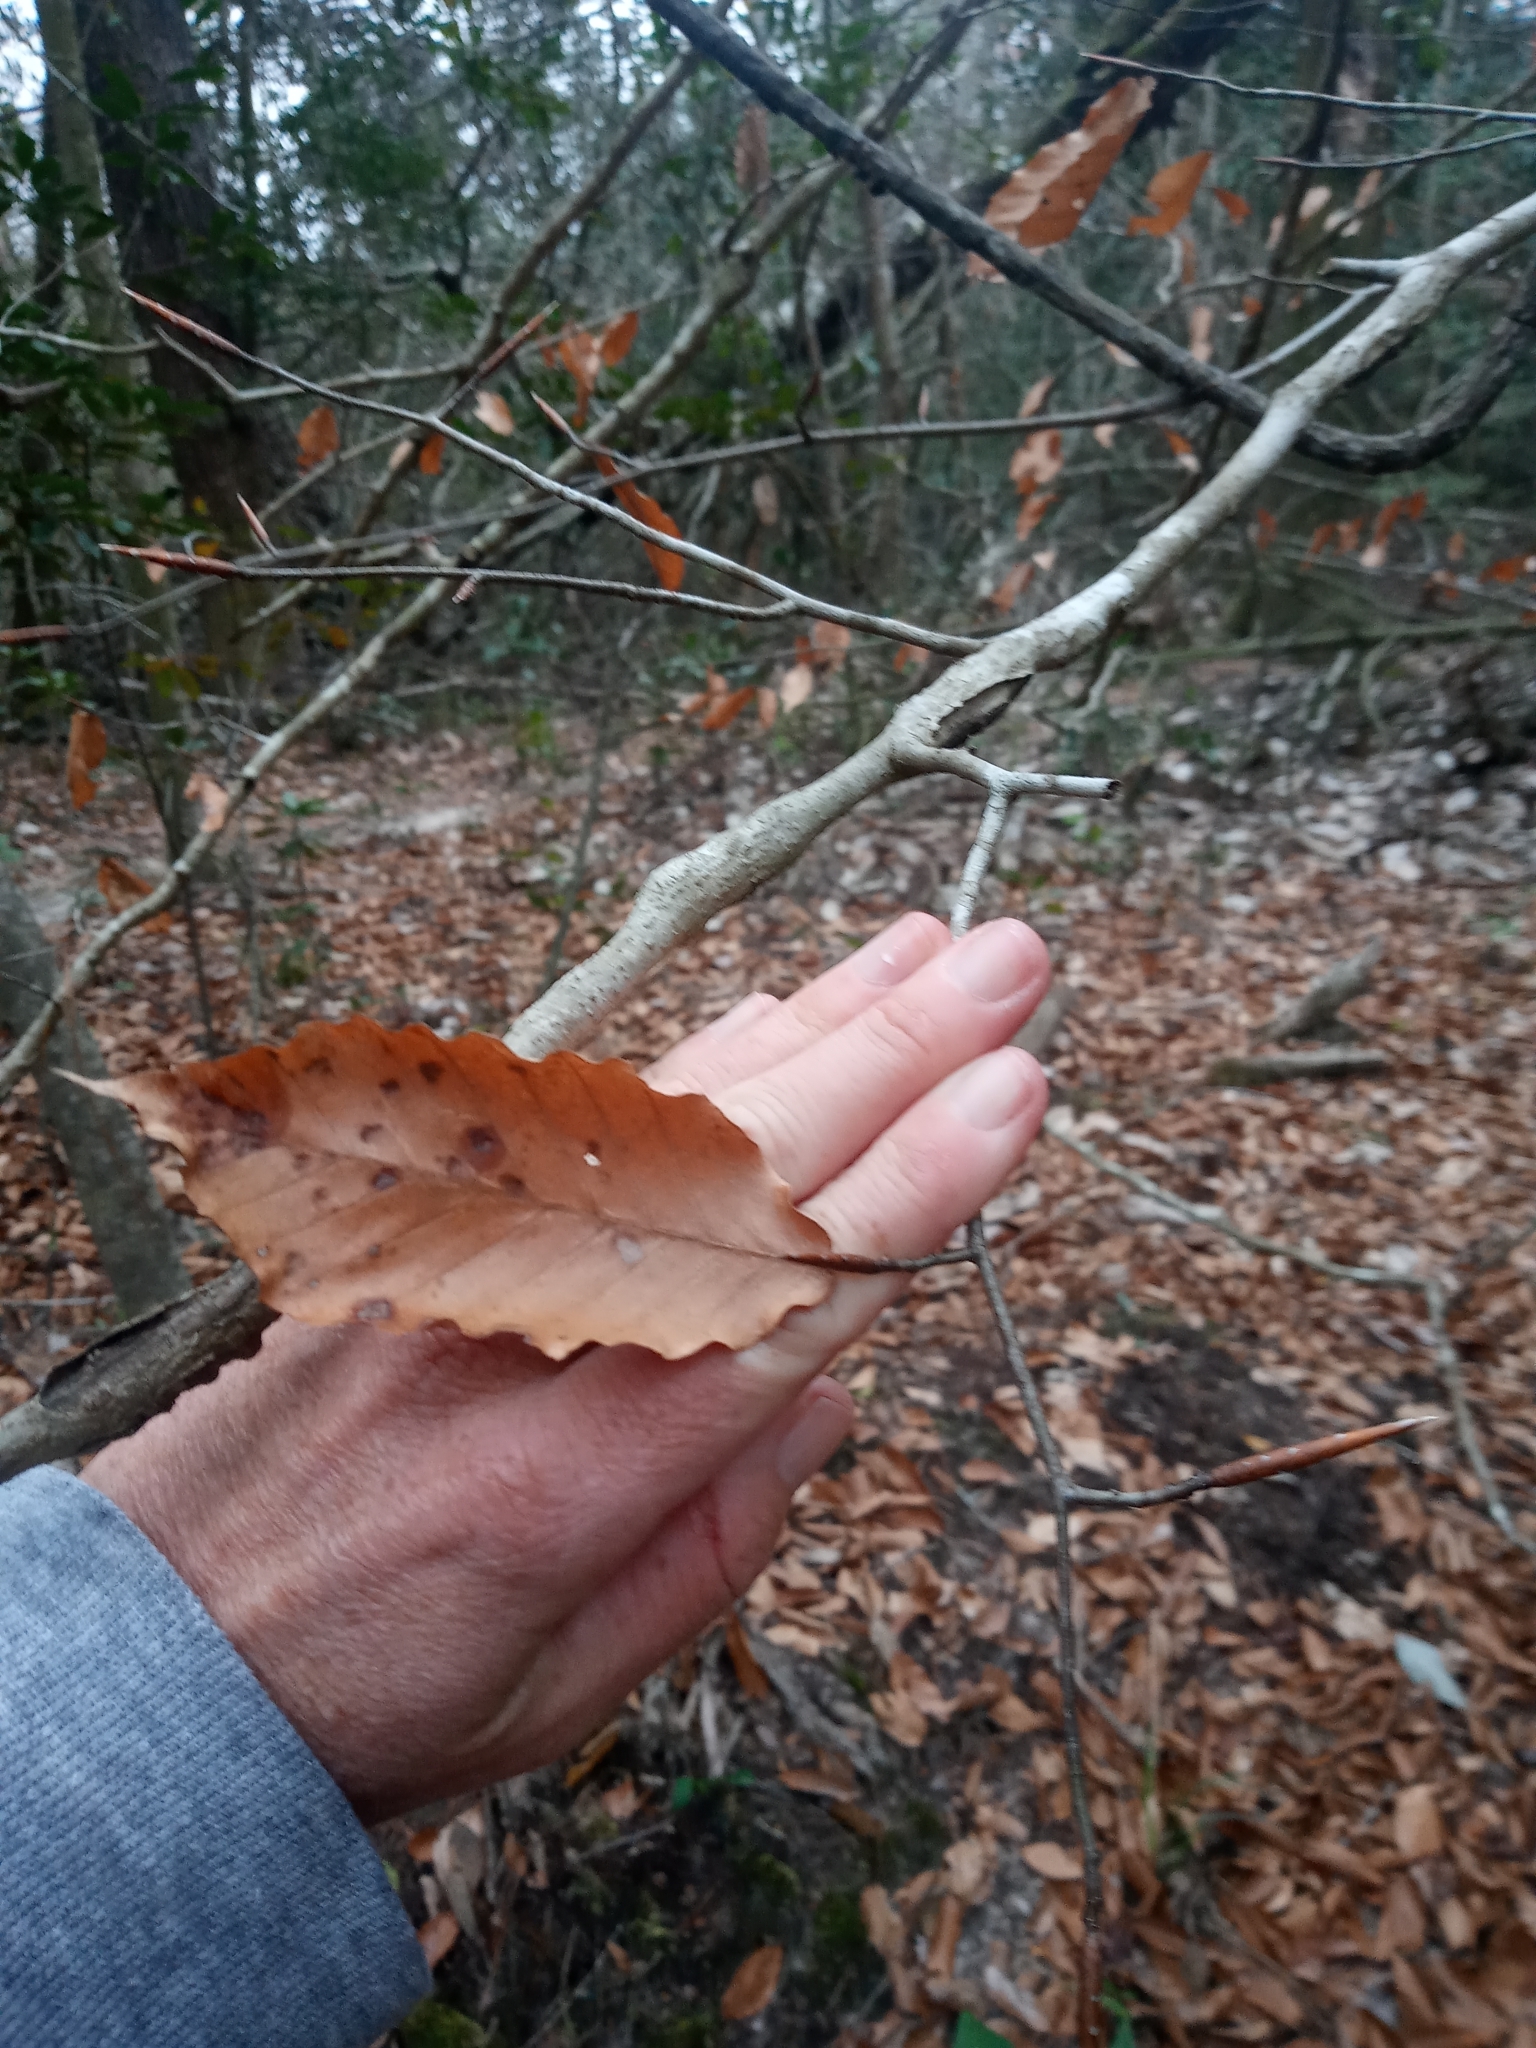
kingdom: Plantae
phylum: Tracheophyta
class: Magnoliopsida
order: Fagales
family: Fagaceae
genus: Fagus
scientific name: Fagus grandifolia
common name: American beech
